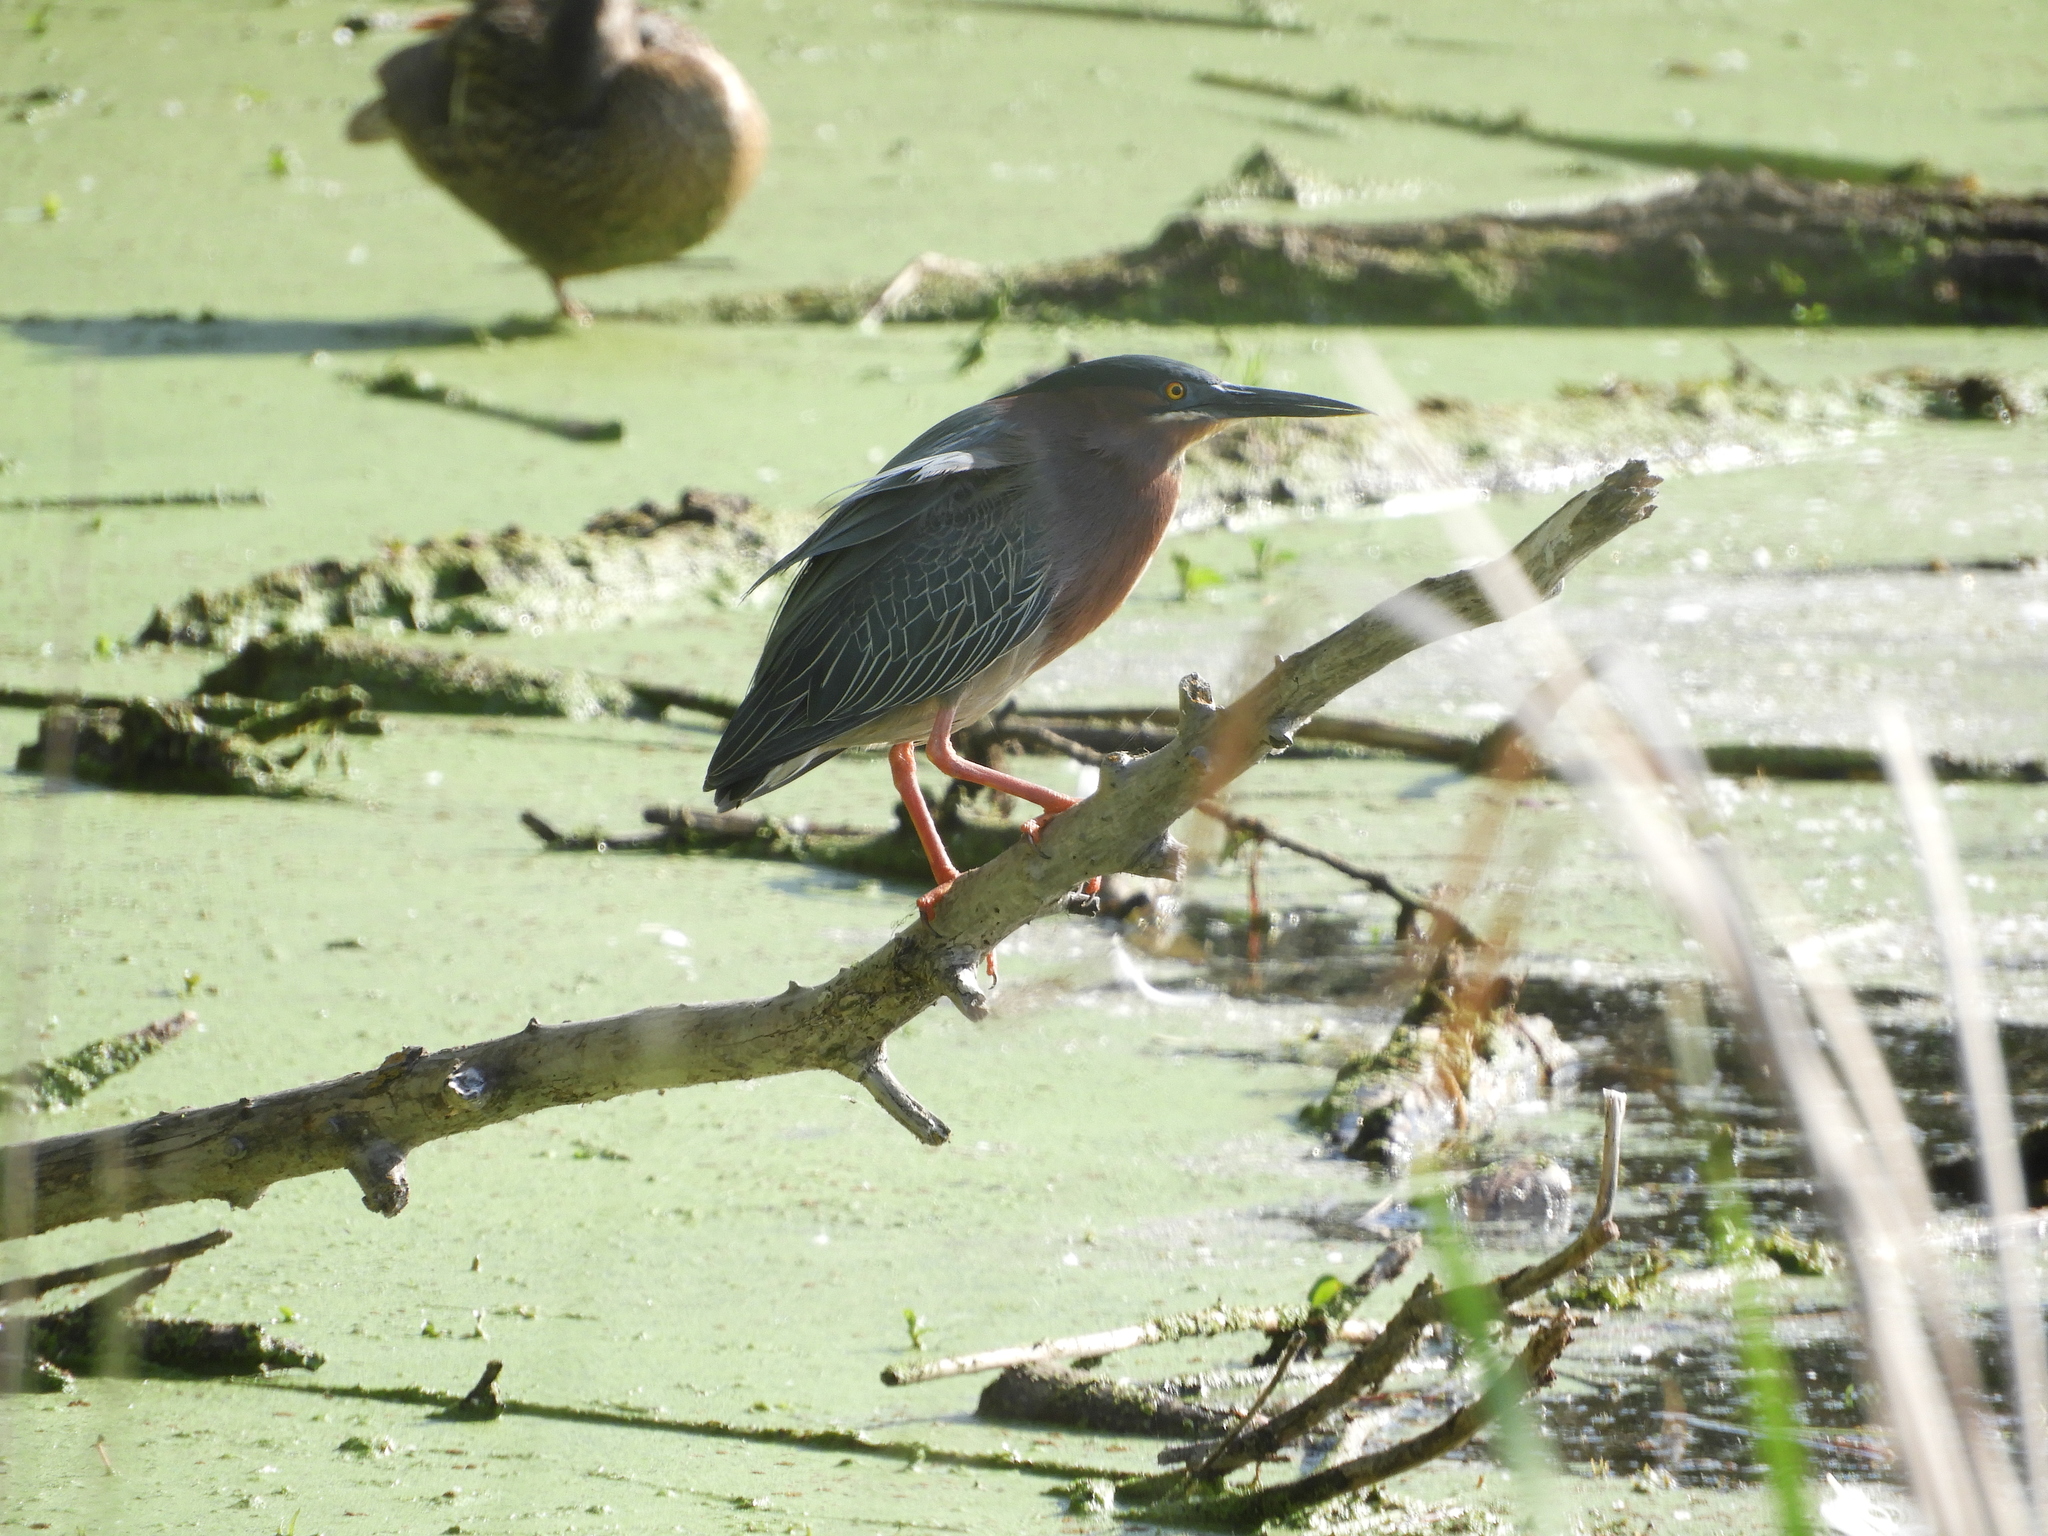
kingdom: Animalia
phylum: Chordata
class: Aves
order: Pelecaniformes
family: Ardeidae
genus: Butorides
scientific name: Butorides virescens
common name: Green heron
